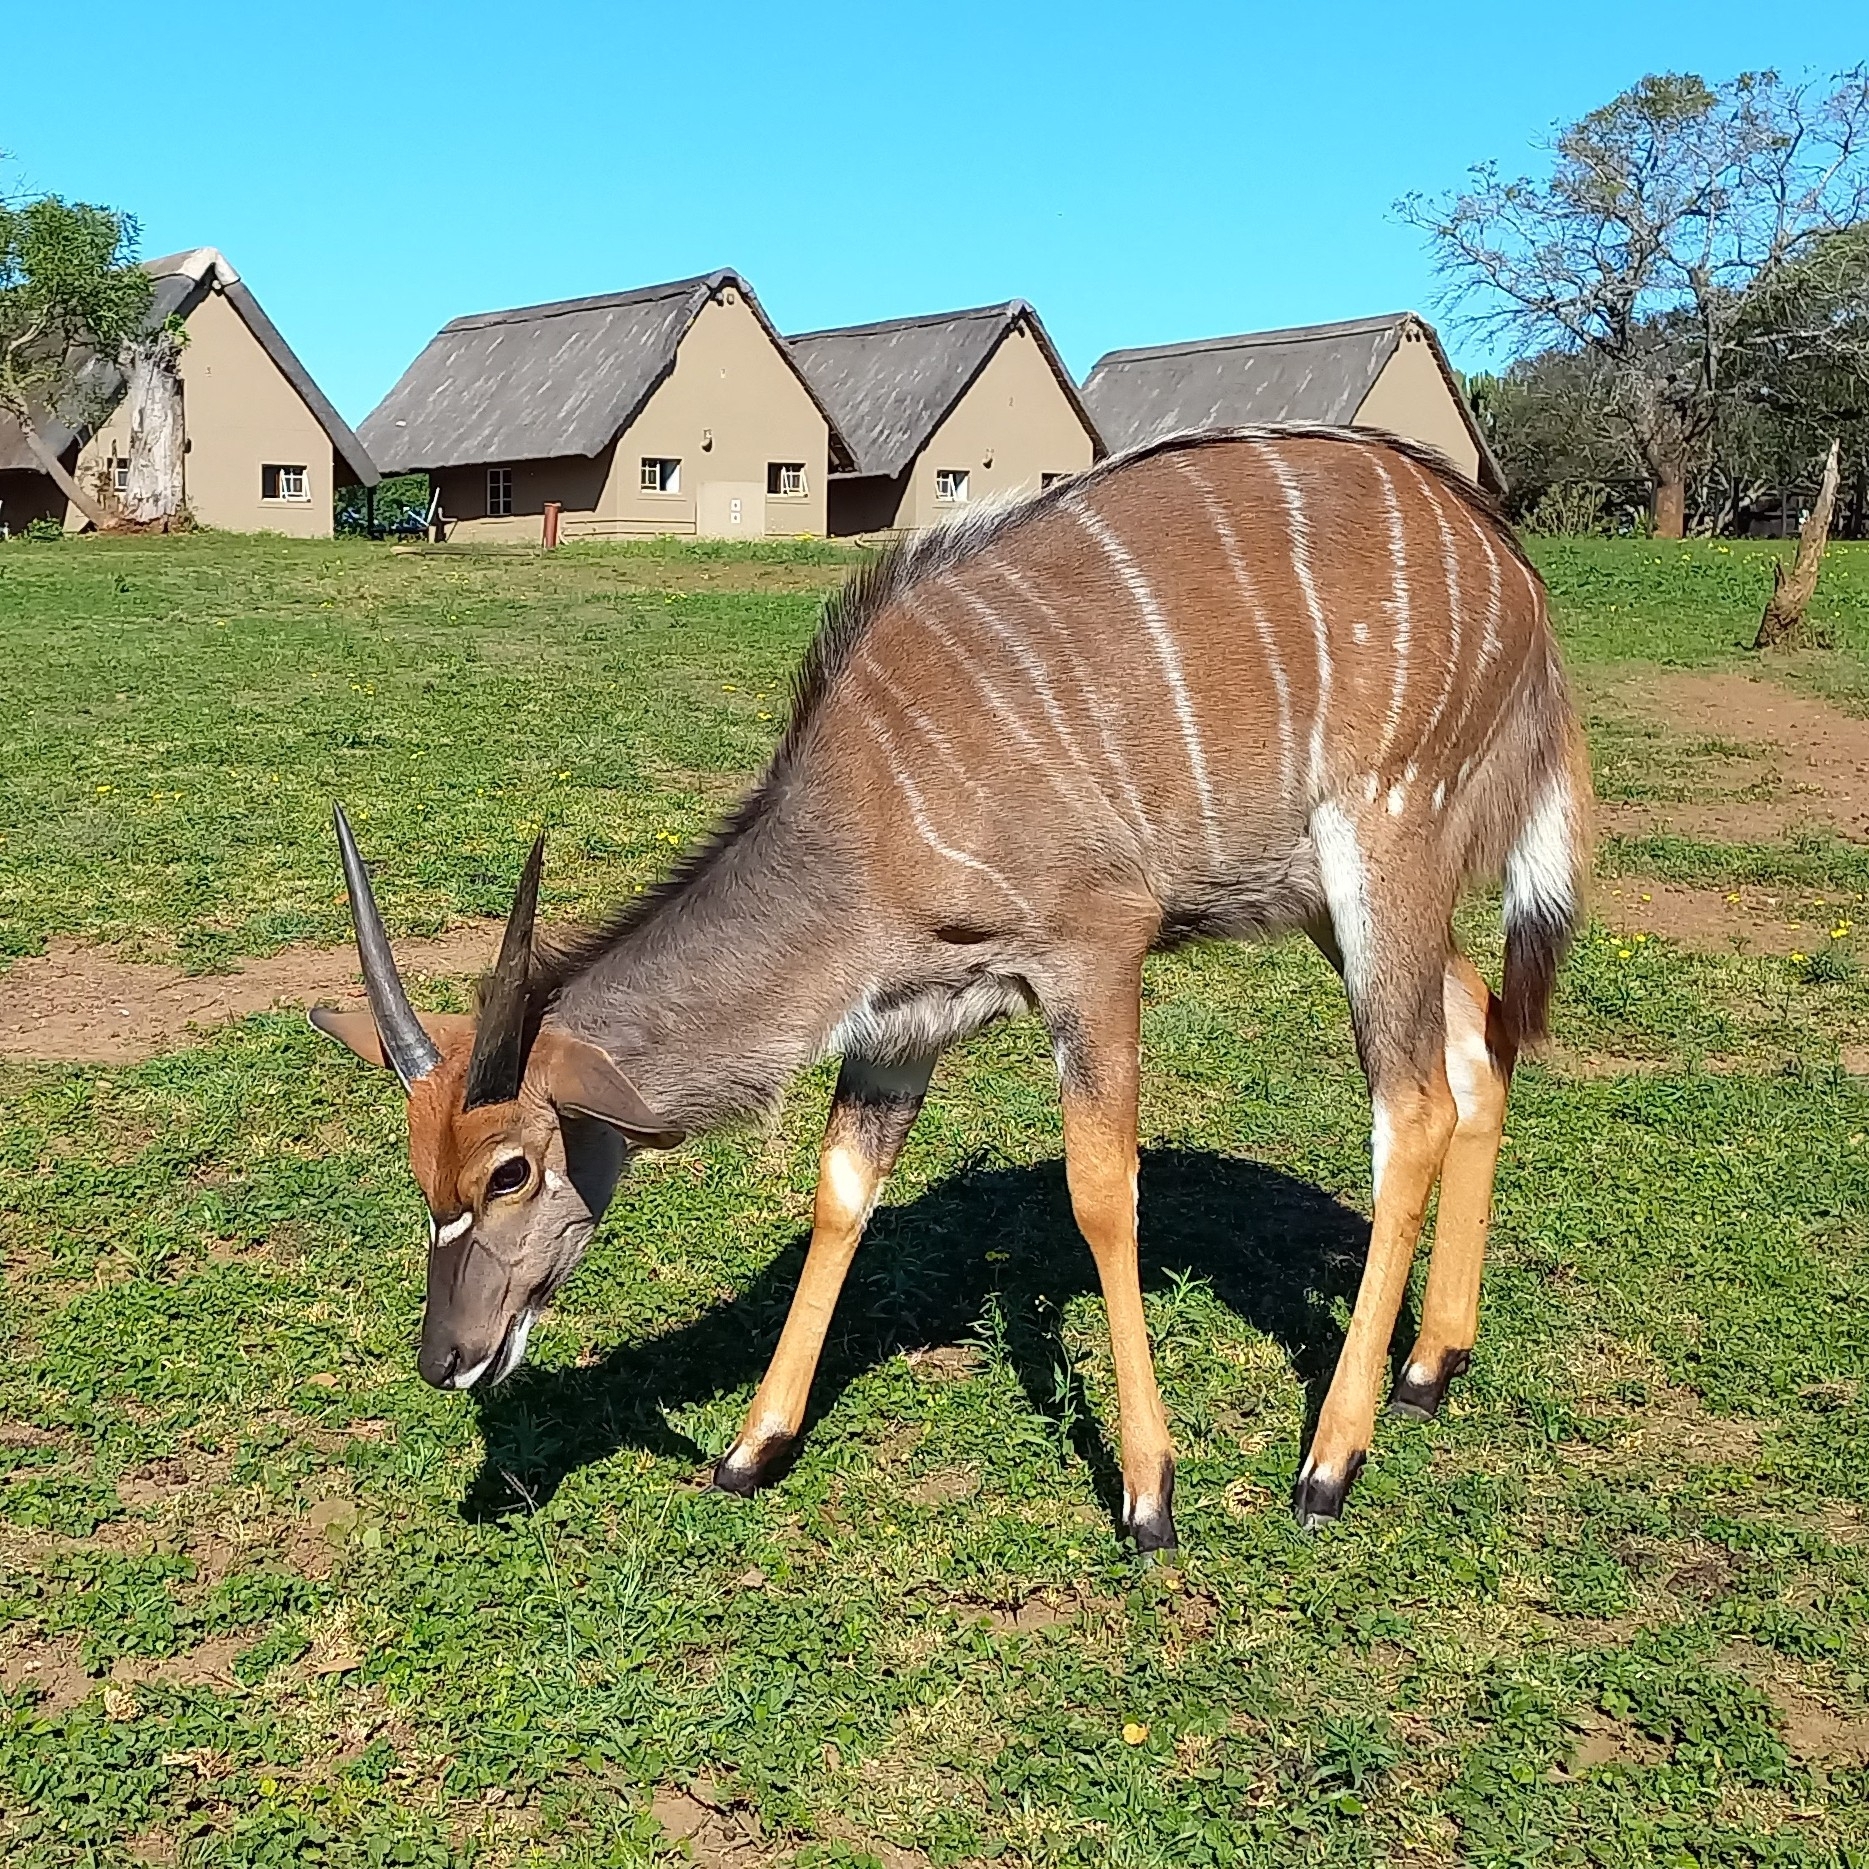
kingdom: Animalia
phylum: Chordata
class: Mammalia
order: Artiodactyla
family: Bovidae
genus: Tragelaphus
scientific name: Tragelaphus angasii
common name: Nyala
